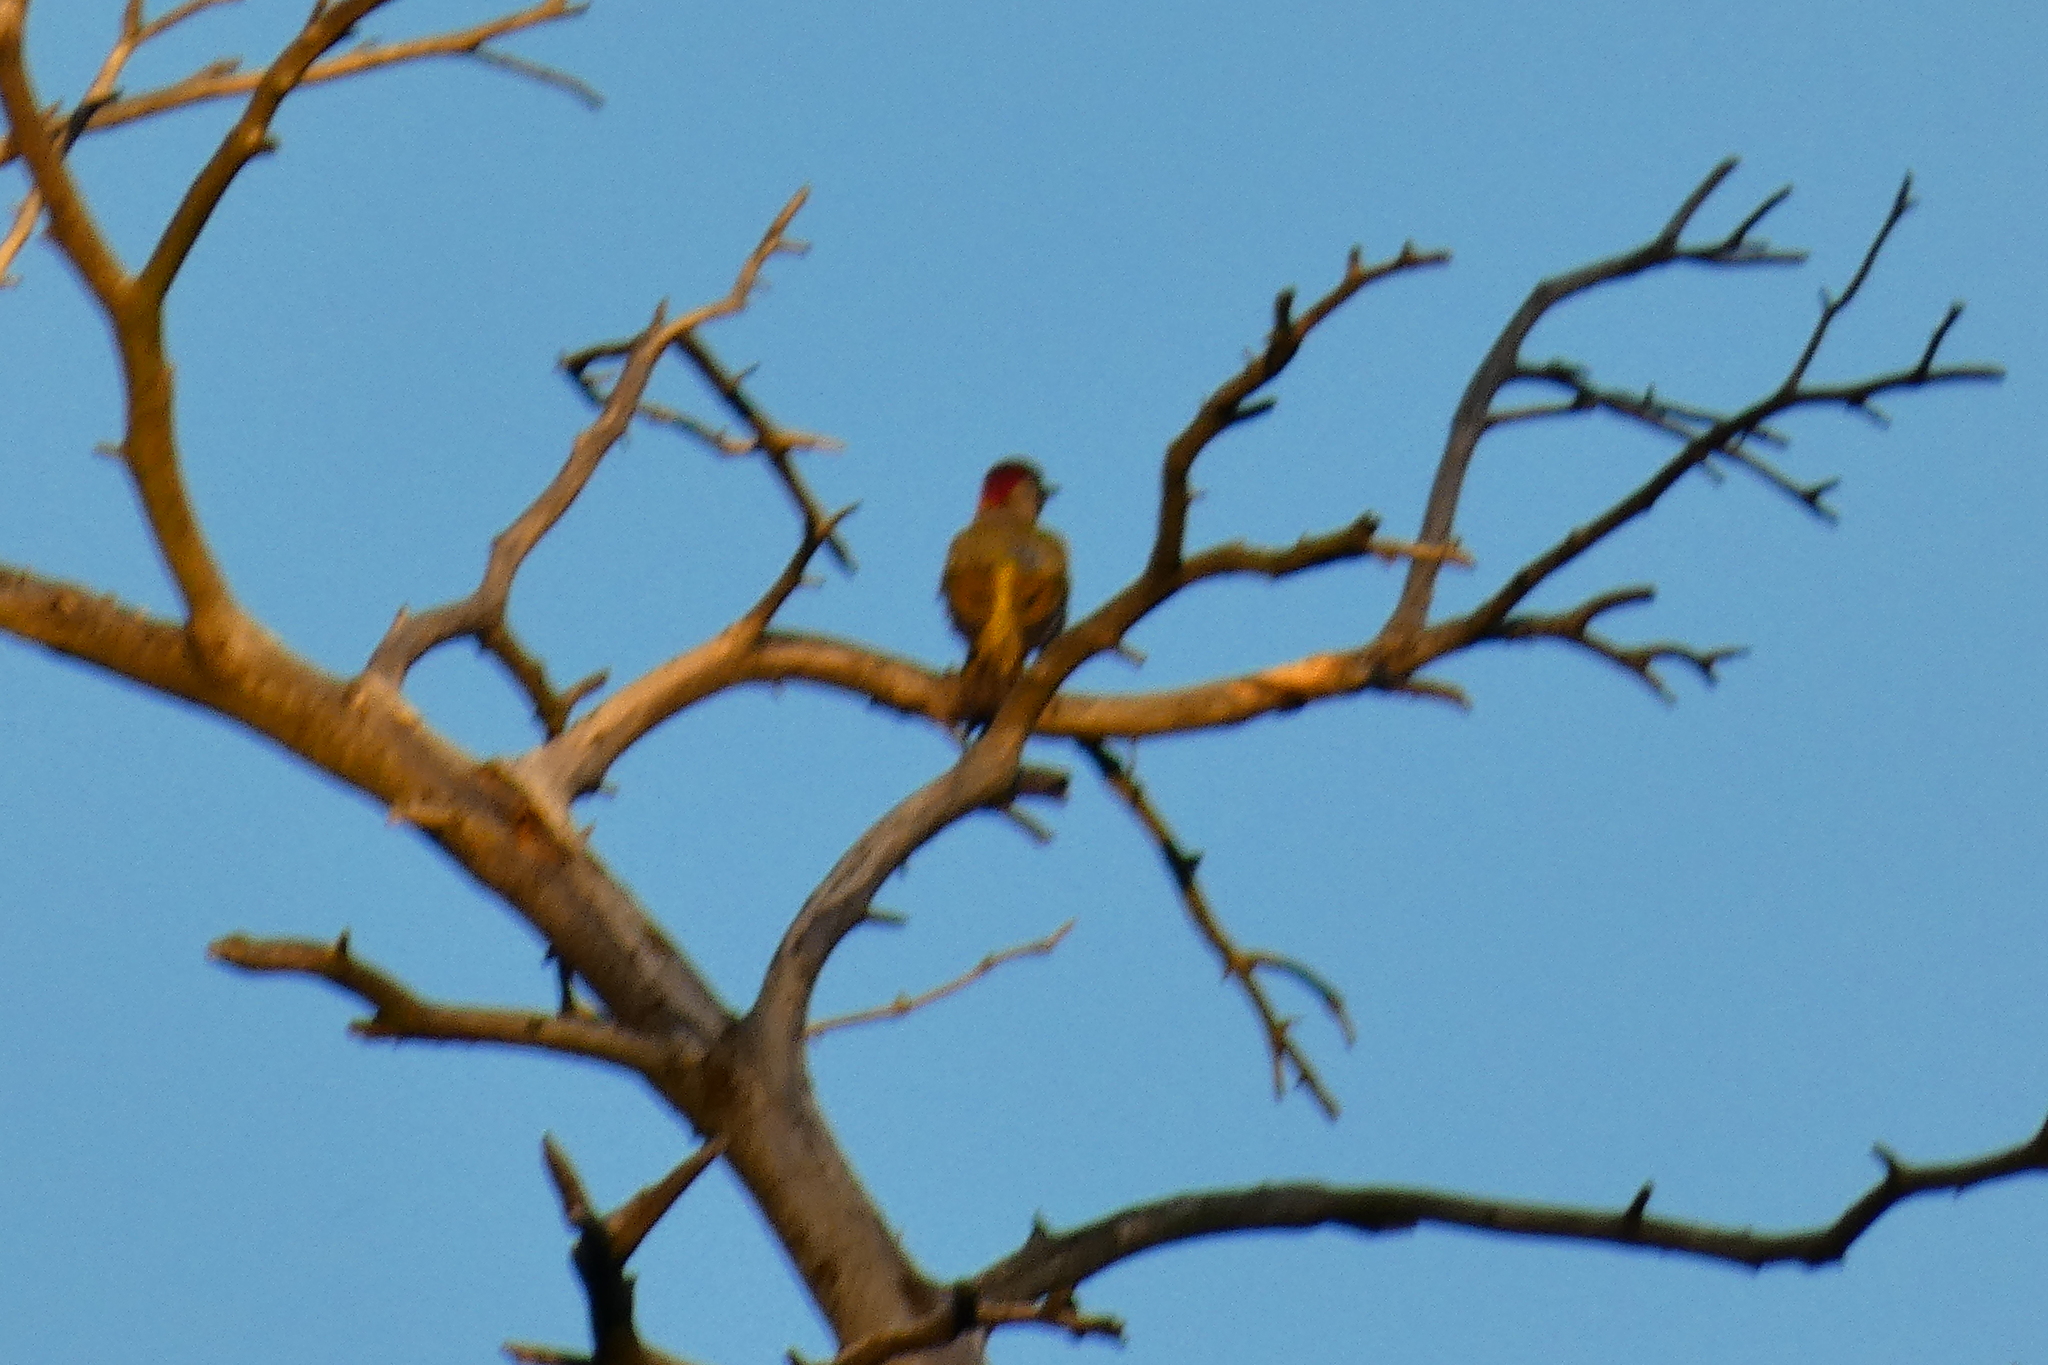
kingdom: Animalia
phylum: Chordata
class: Aves
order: Piciformes
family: Picidae
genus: Picus
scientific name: Picus viridis
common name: European green woodpecker
